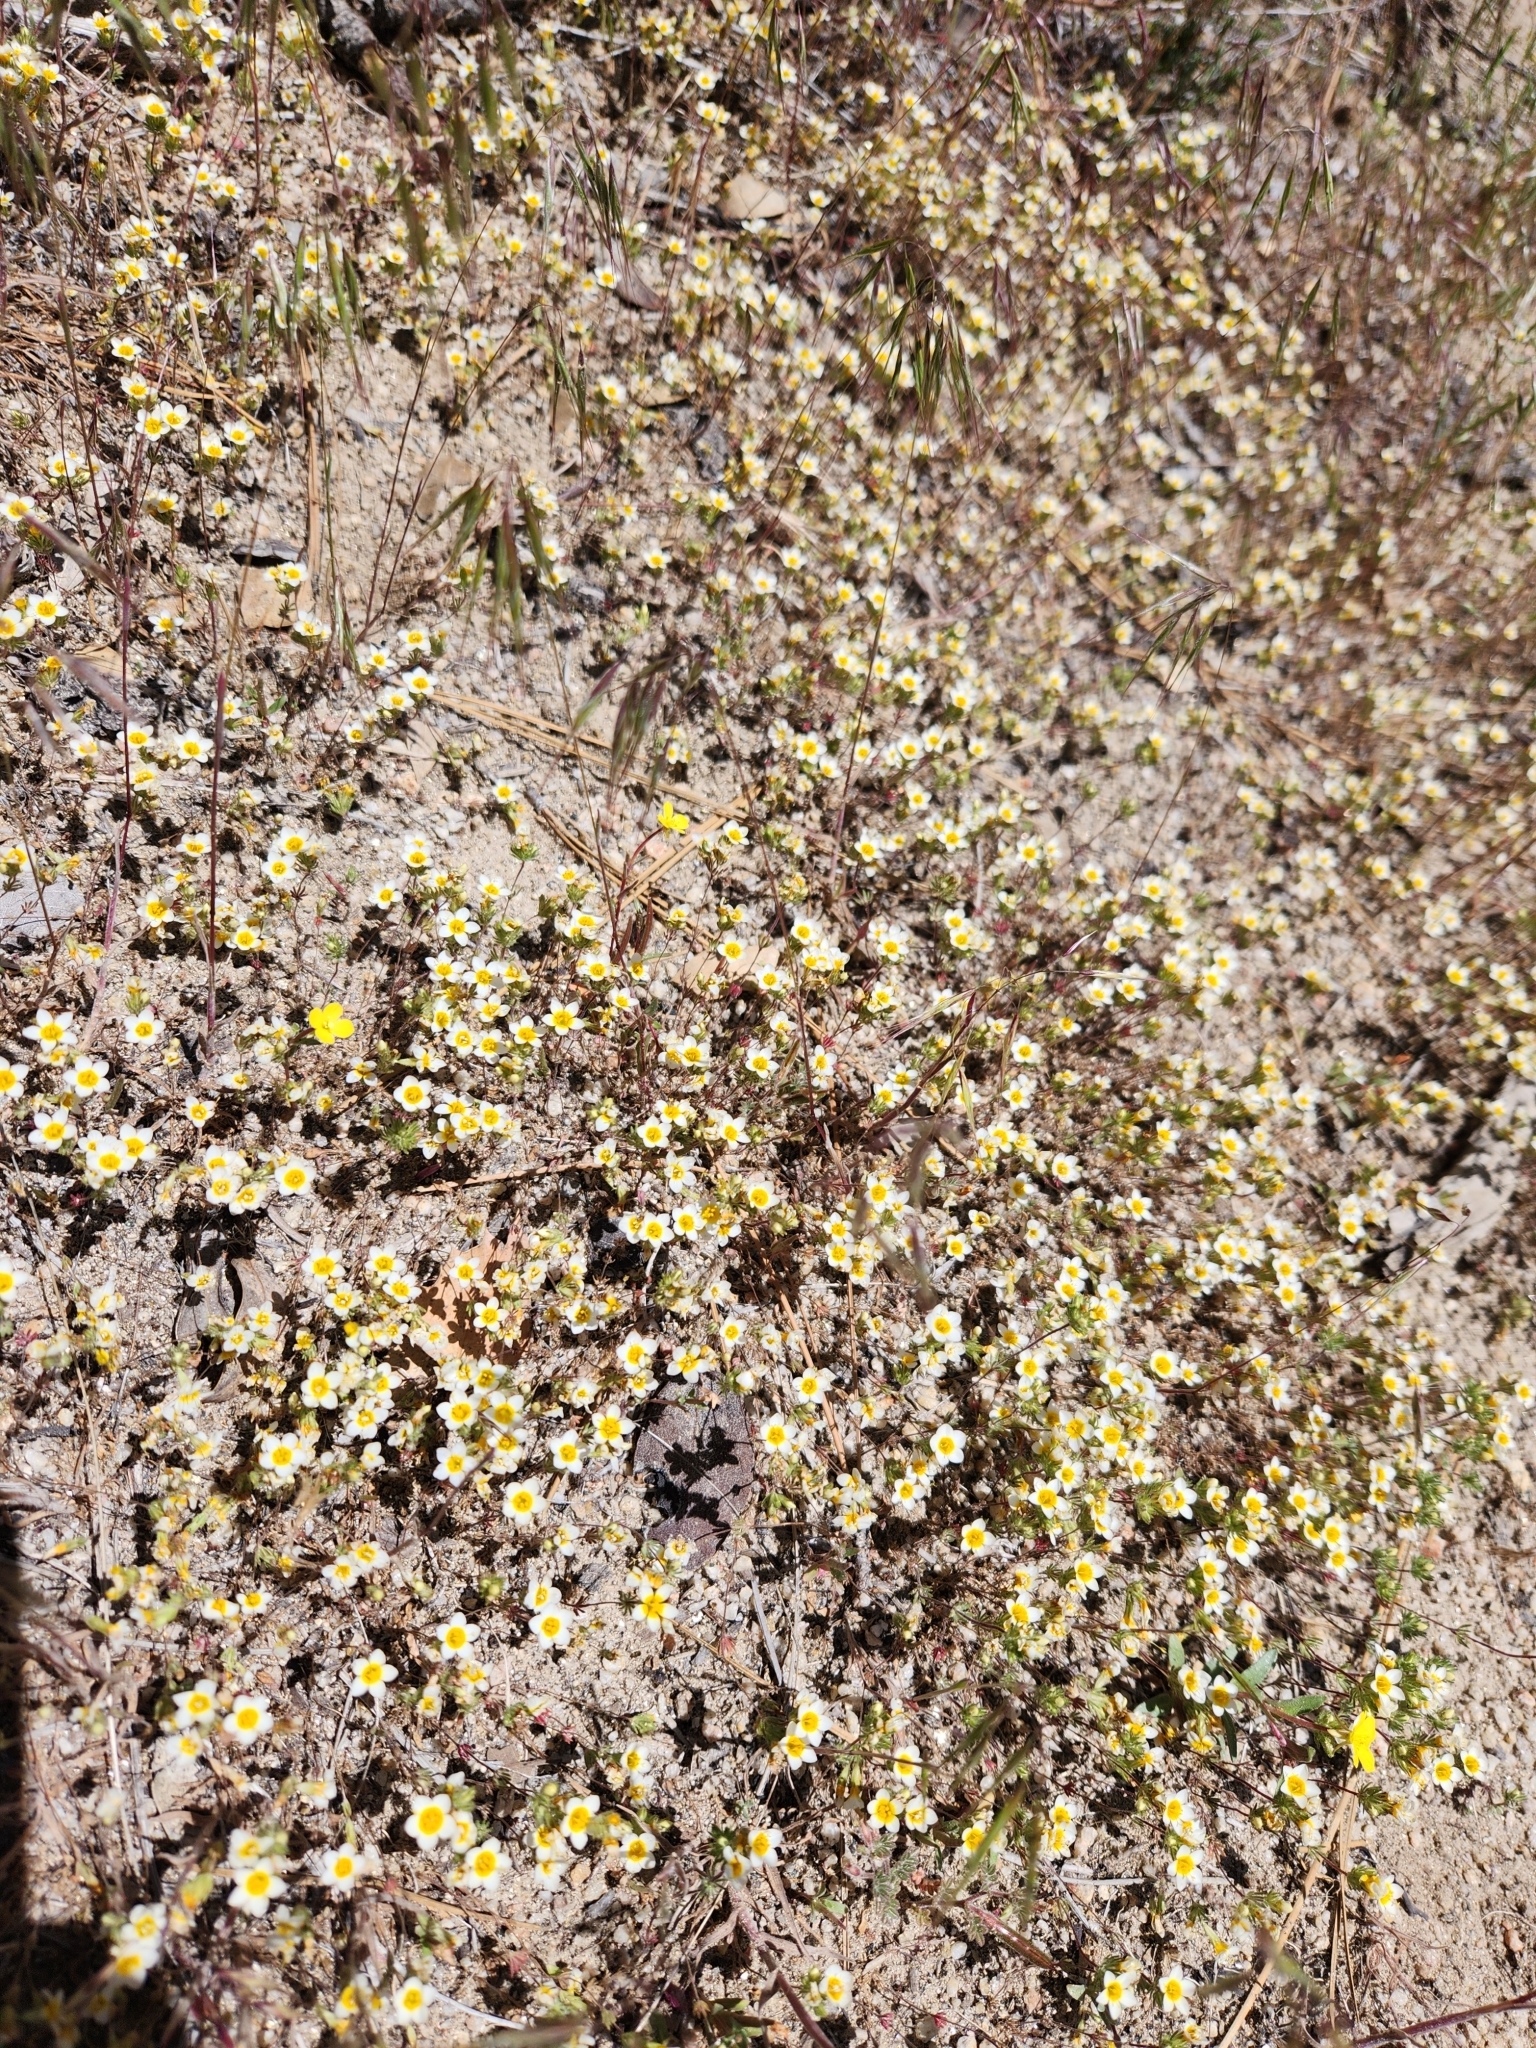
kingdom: Plantae
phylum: Tracheophyta
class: Magnoliopsida
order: Ericales
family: Polemoniaceae
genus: Leptosiphon
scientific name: Leptosiphon lemmonii
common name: Lemmon's linanthus
